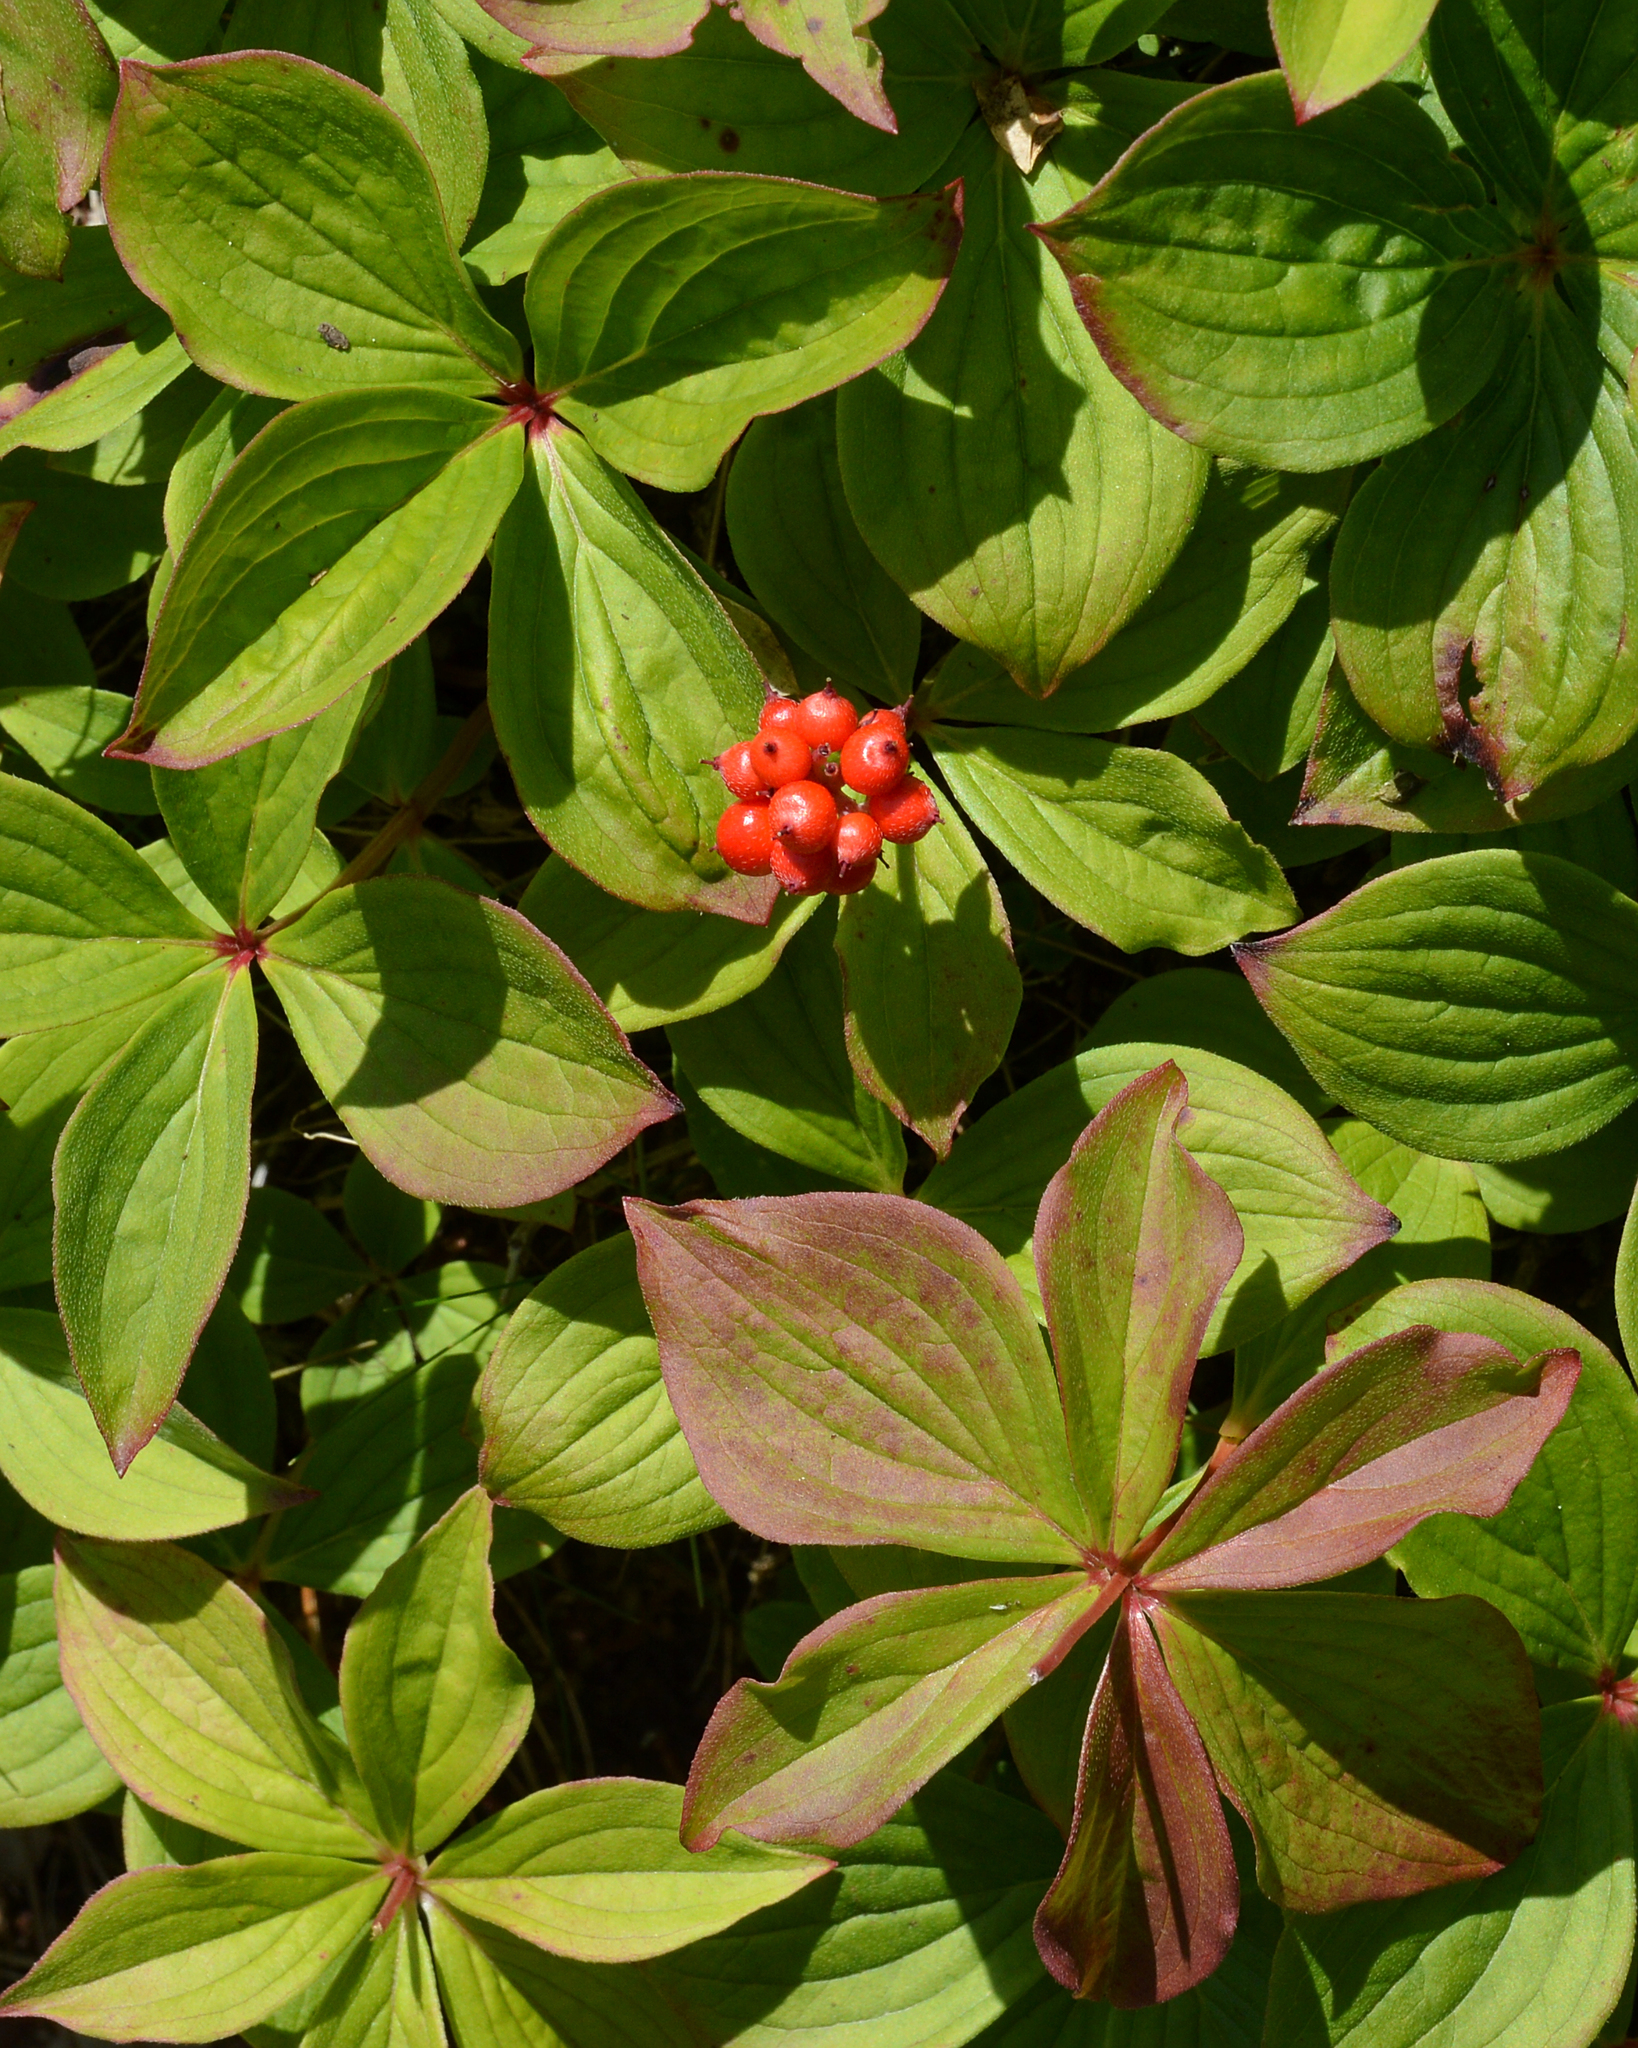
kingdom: Plantae
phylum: Tracheophyta
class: Magnoliopsida
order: Cornales
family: Cornaceae
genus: Cornus
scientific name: Cornus canadensis
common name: Creeping dogwood
